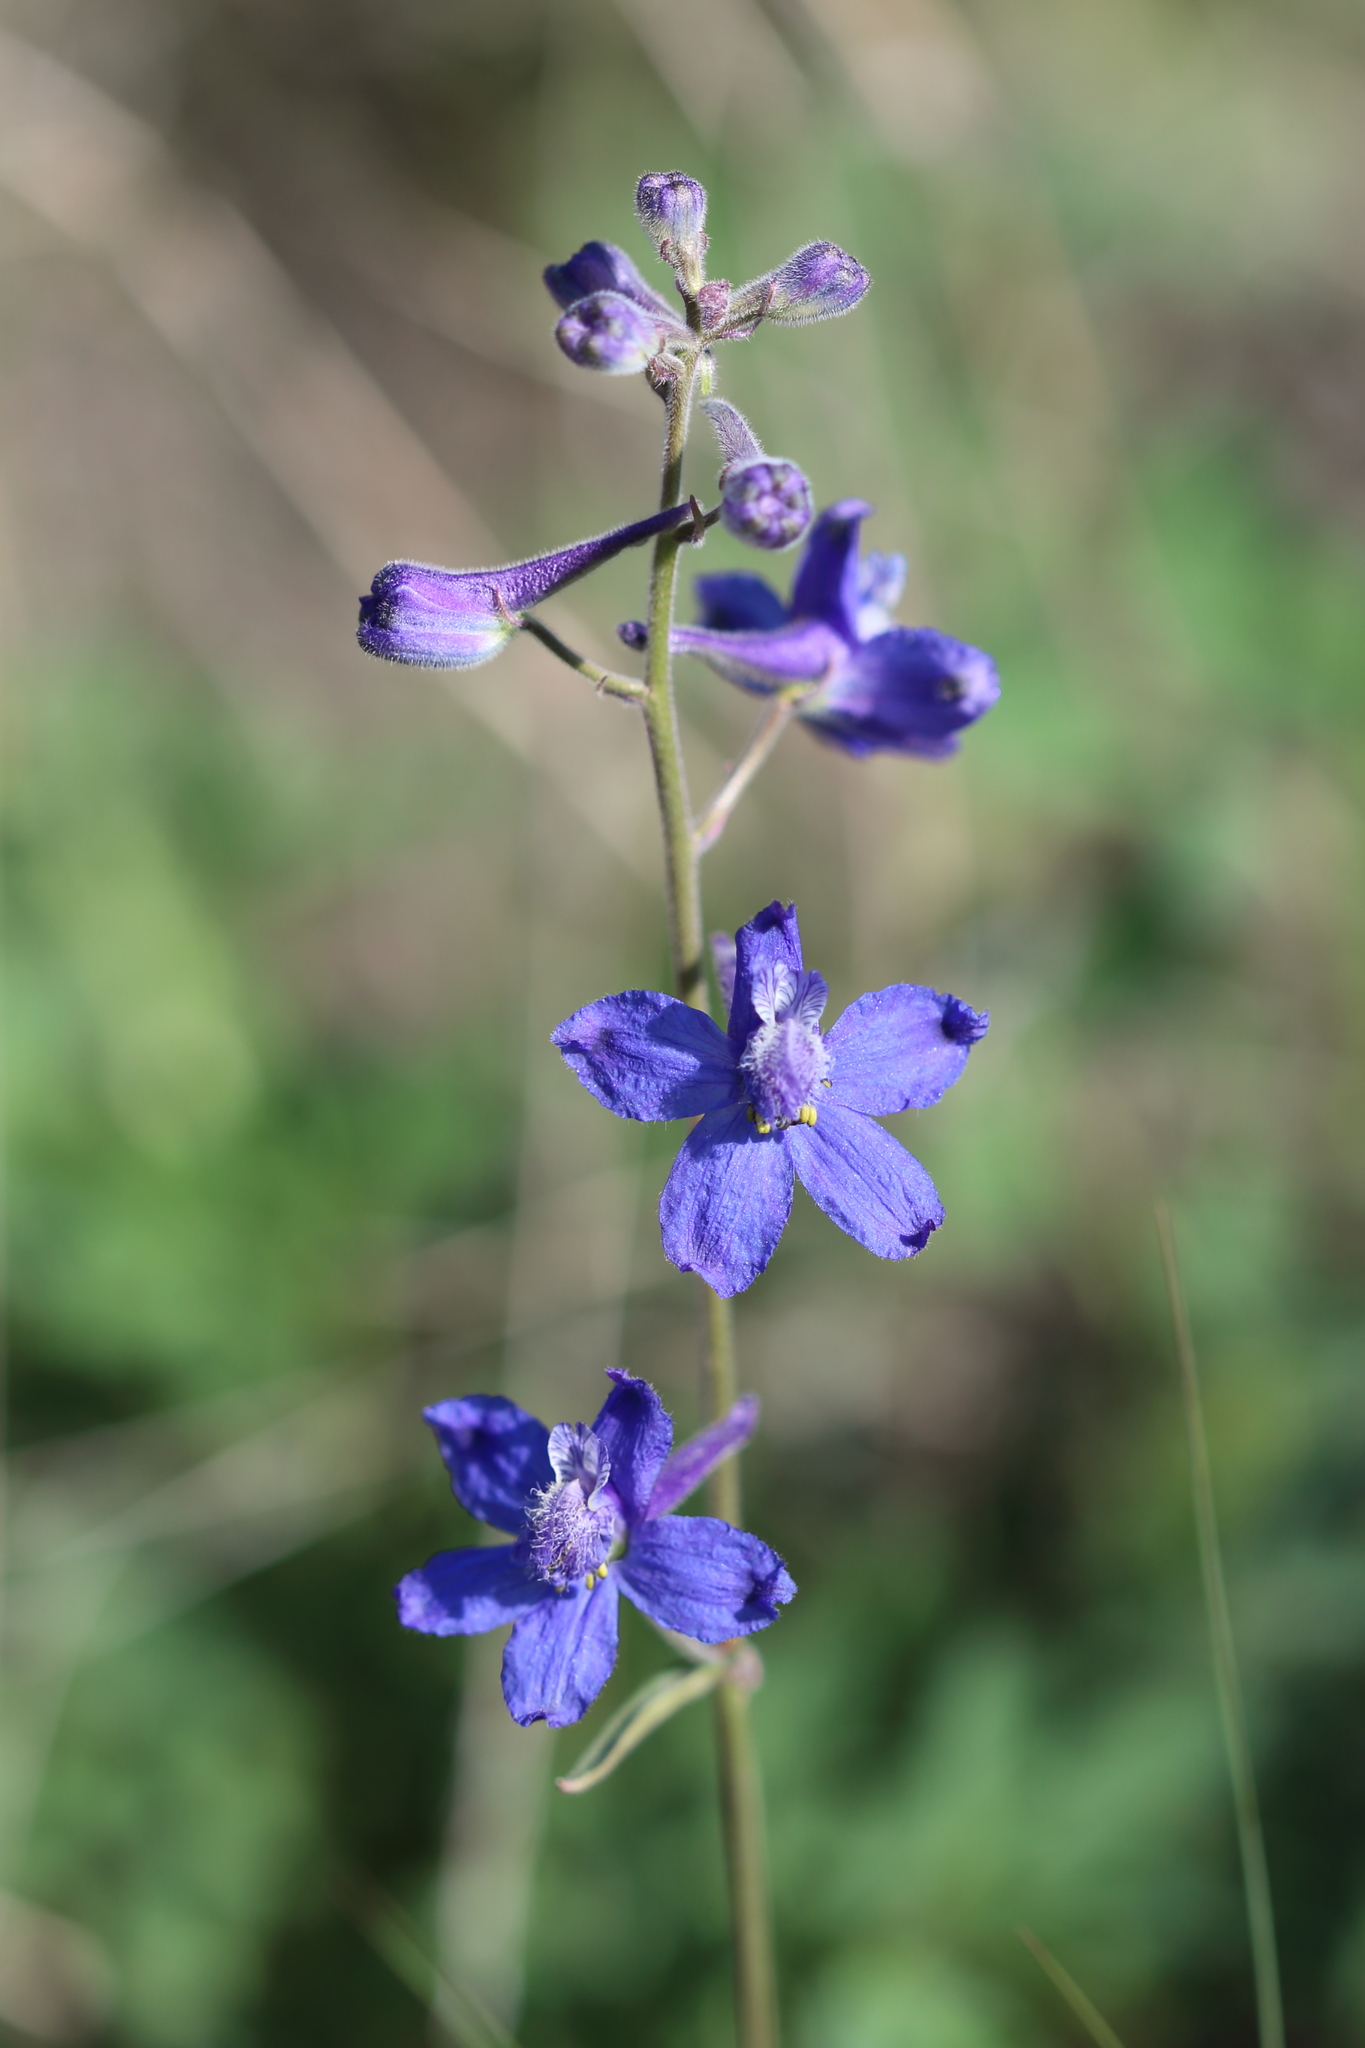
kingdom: Plantae
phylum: Tracheophyta
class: Magnoliopsida
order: Ranunculales
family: Ranunculaceae
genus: Delphinium
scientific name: Delphinium nuttallianum
